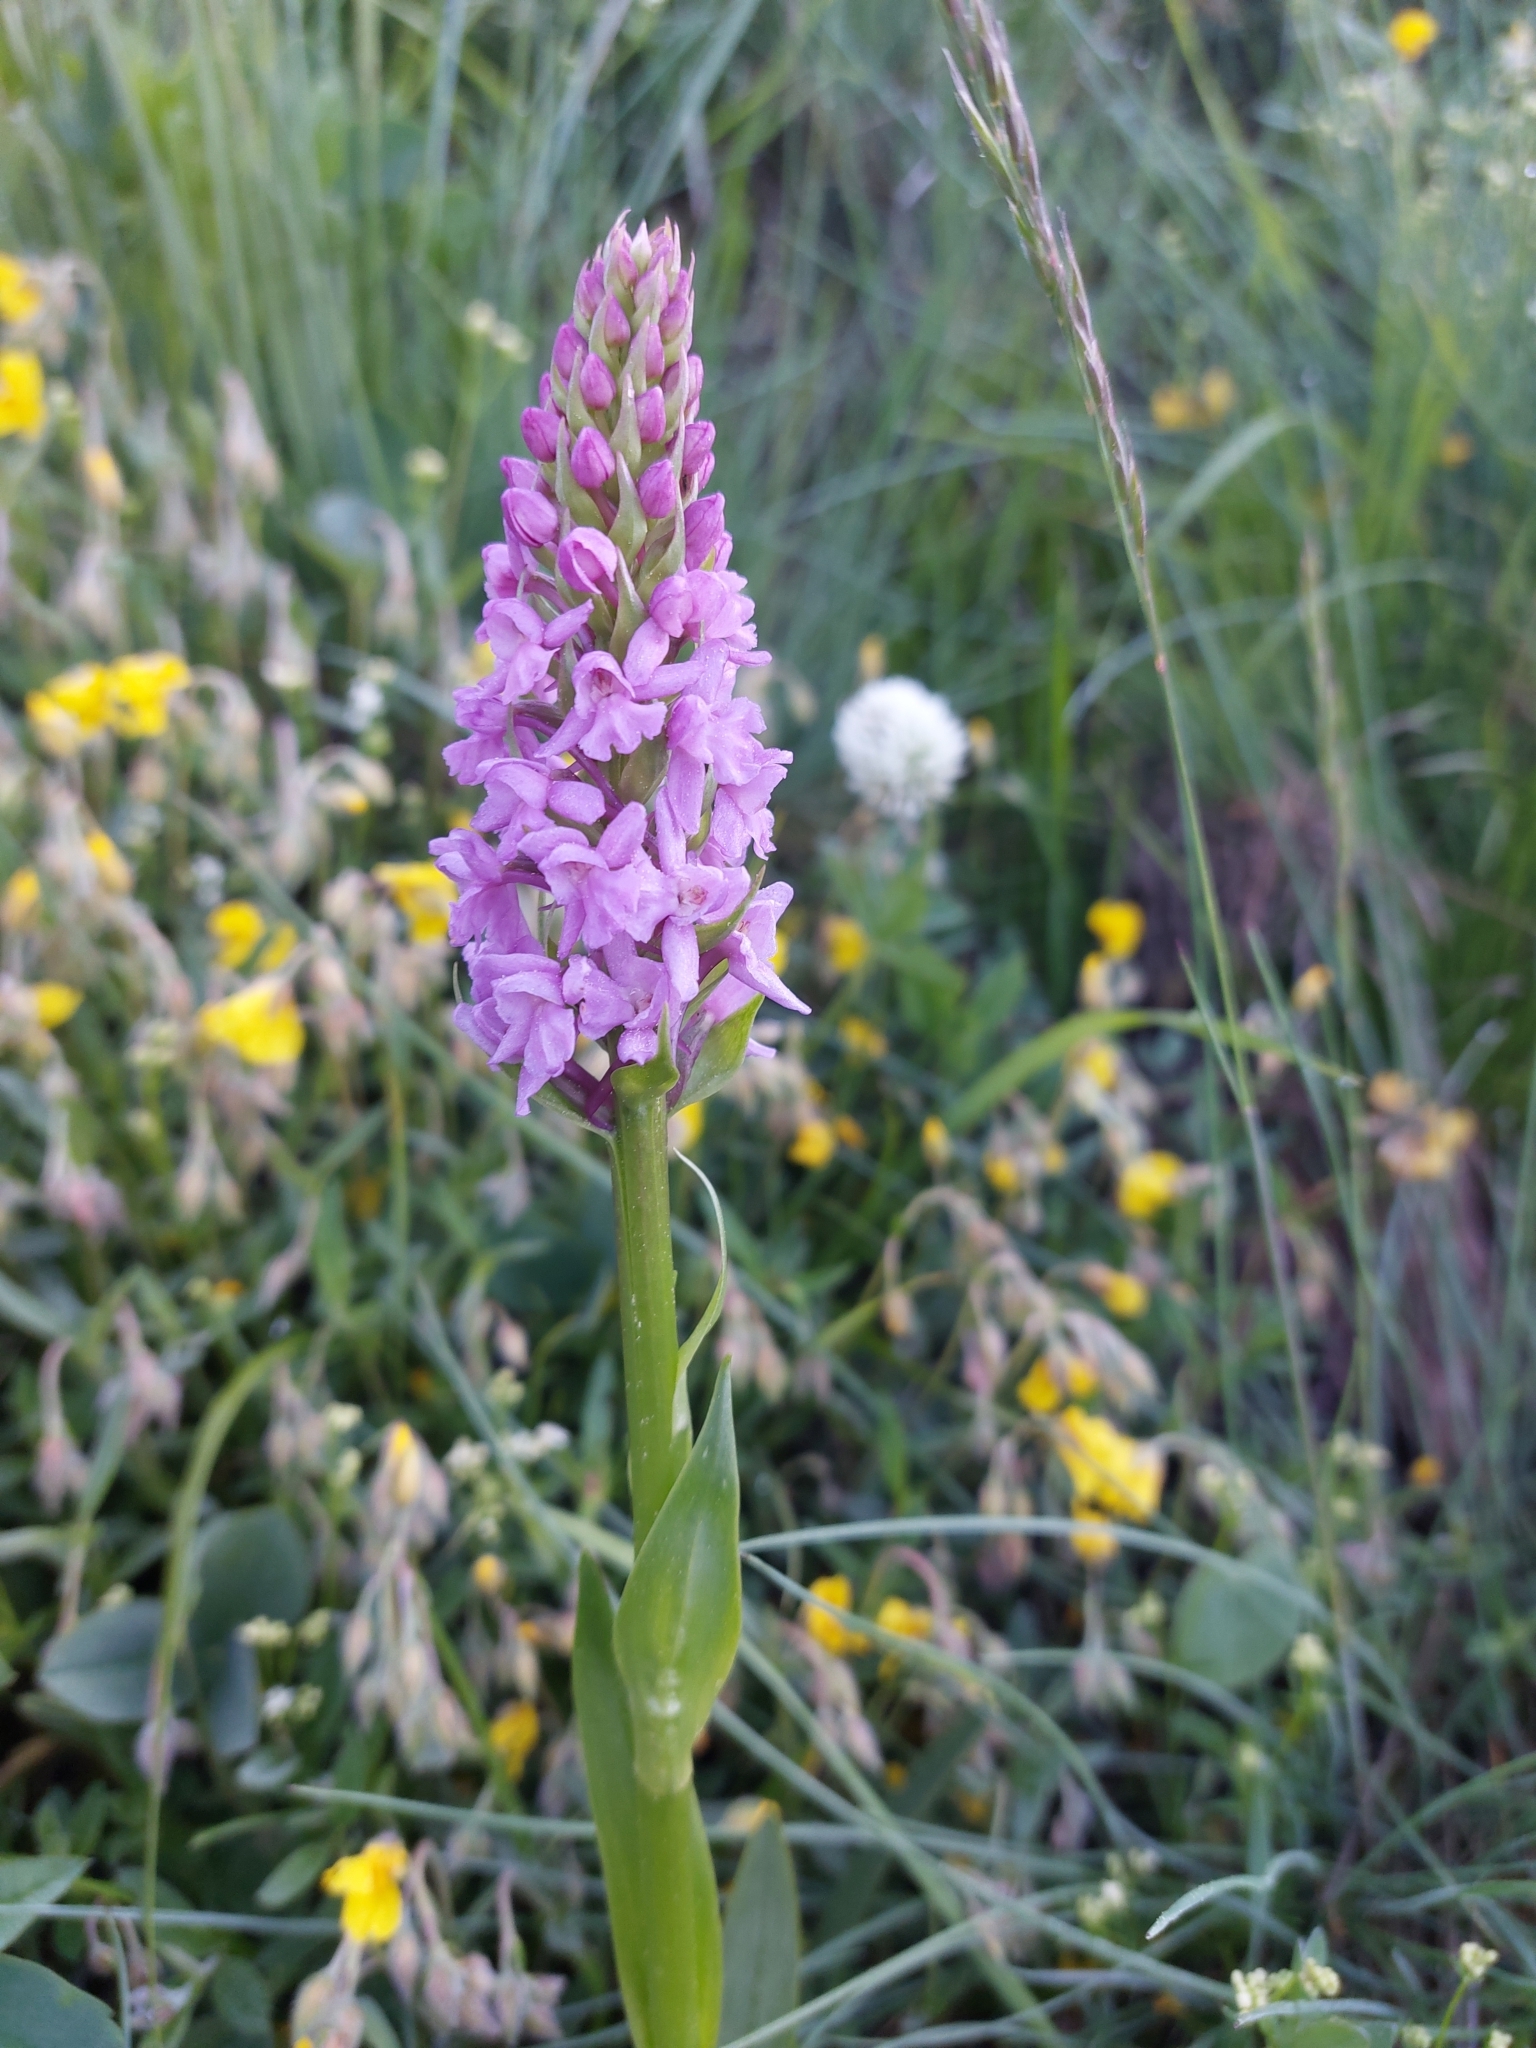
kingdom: Plantae
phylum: Tracheophyta
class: Liliopsida
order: Asparagales
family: Orchidaceae
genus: Gymnadenia
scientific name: Gymnadenia conopsea
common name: Fragrant orchid
